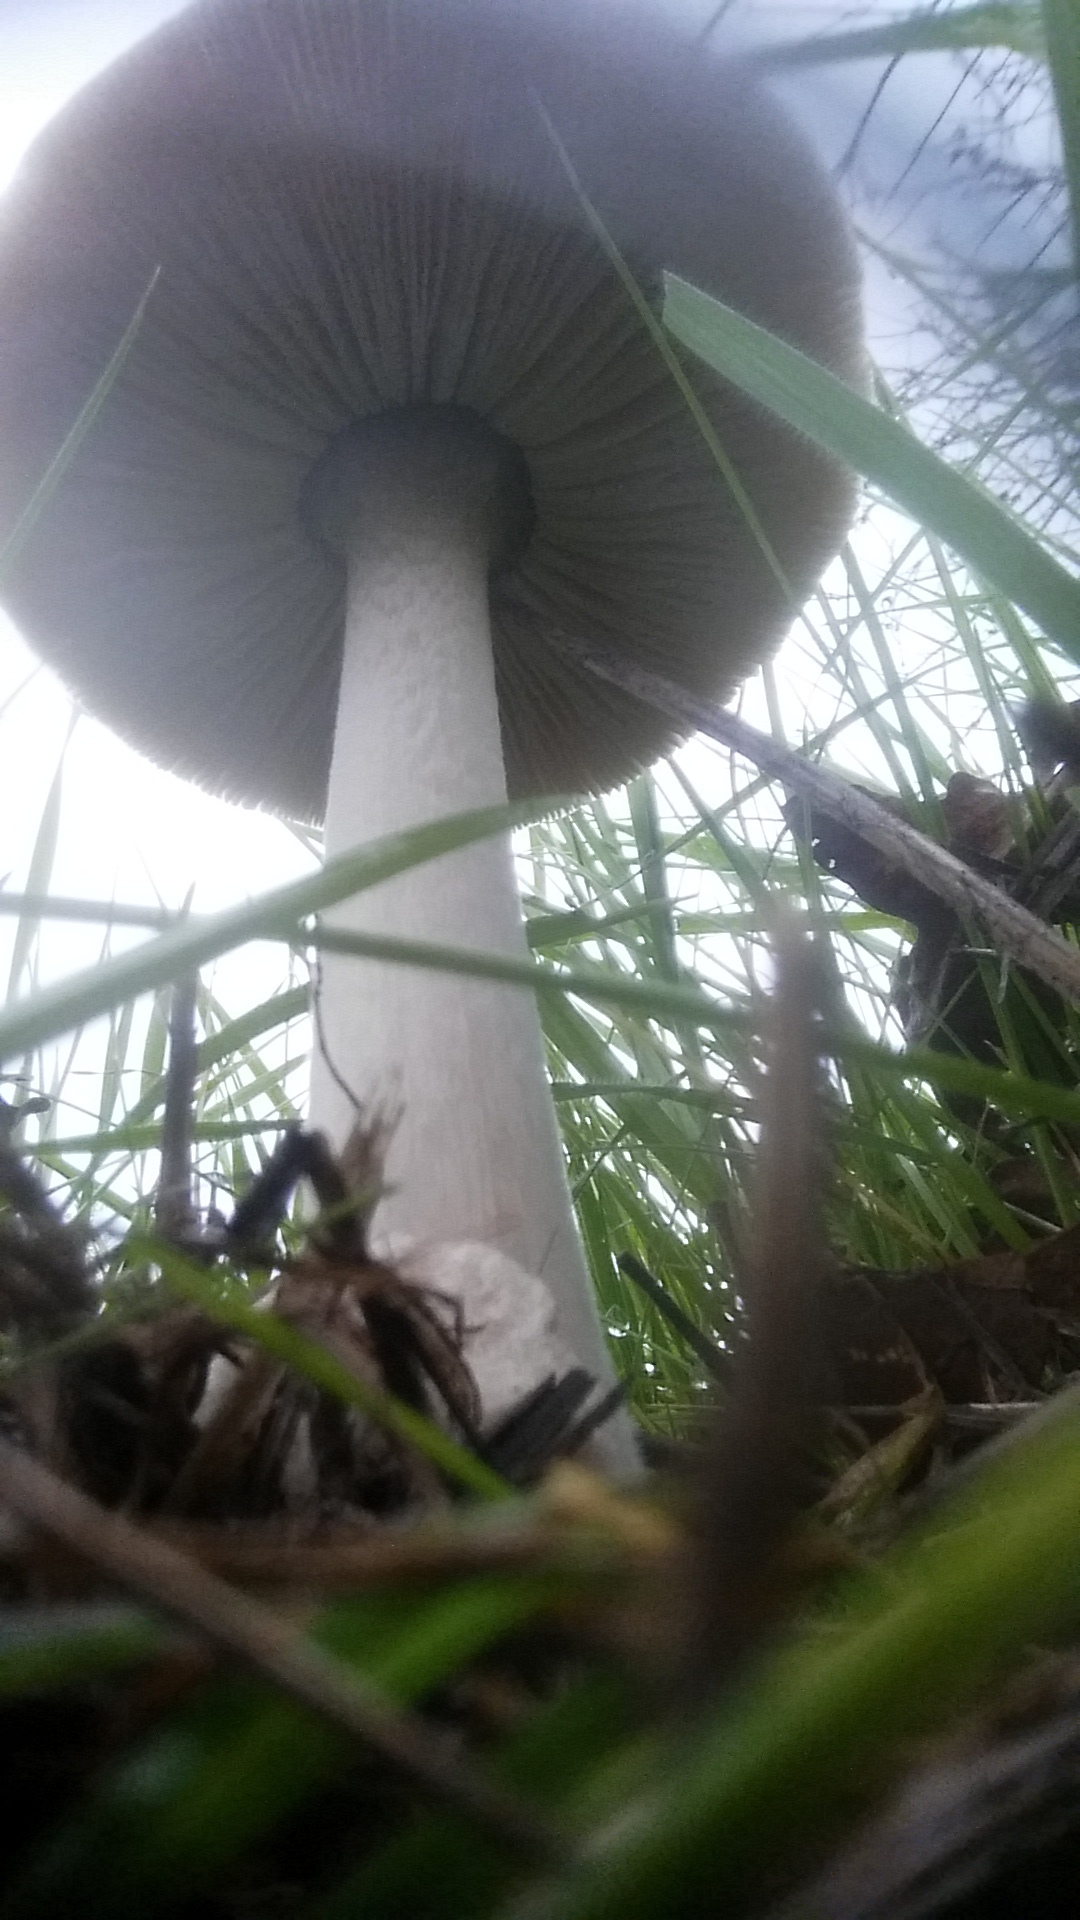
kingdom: Fungi
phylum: Basidiomycota
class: Agaricomycetes
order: Agaricales
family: Pluteaceae
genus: Volvopluteus
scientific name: Volvopluteus gloiocephalus
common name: Stubble rosegill
